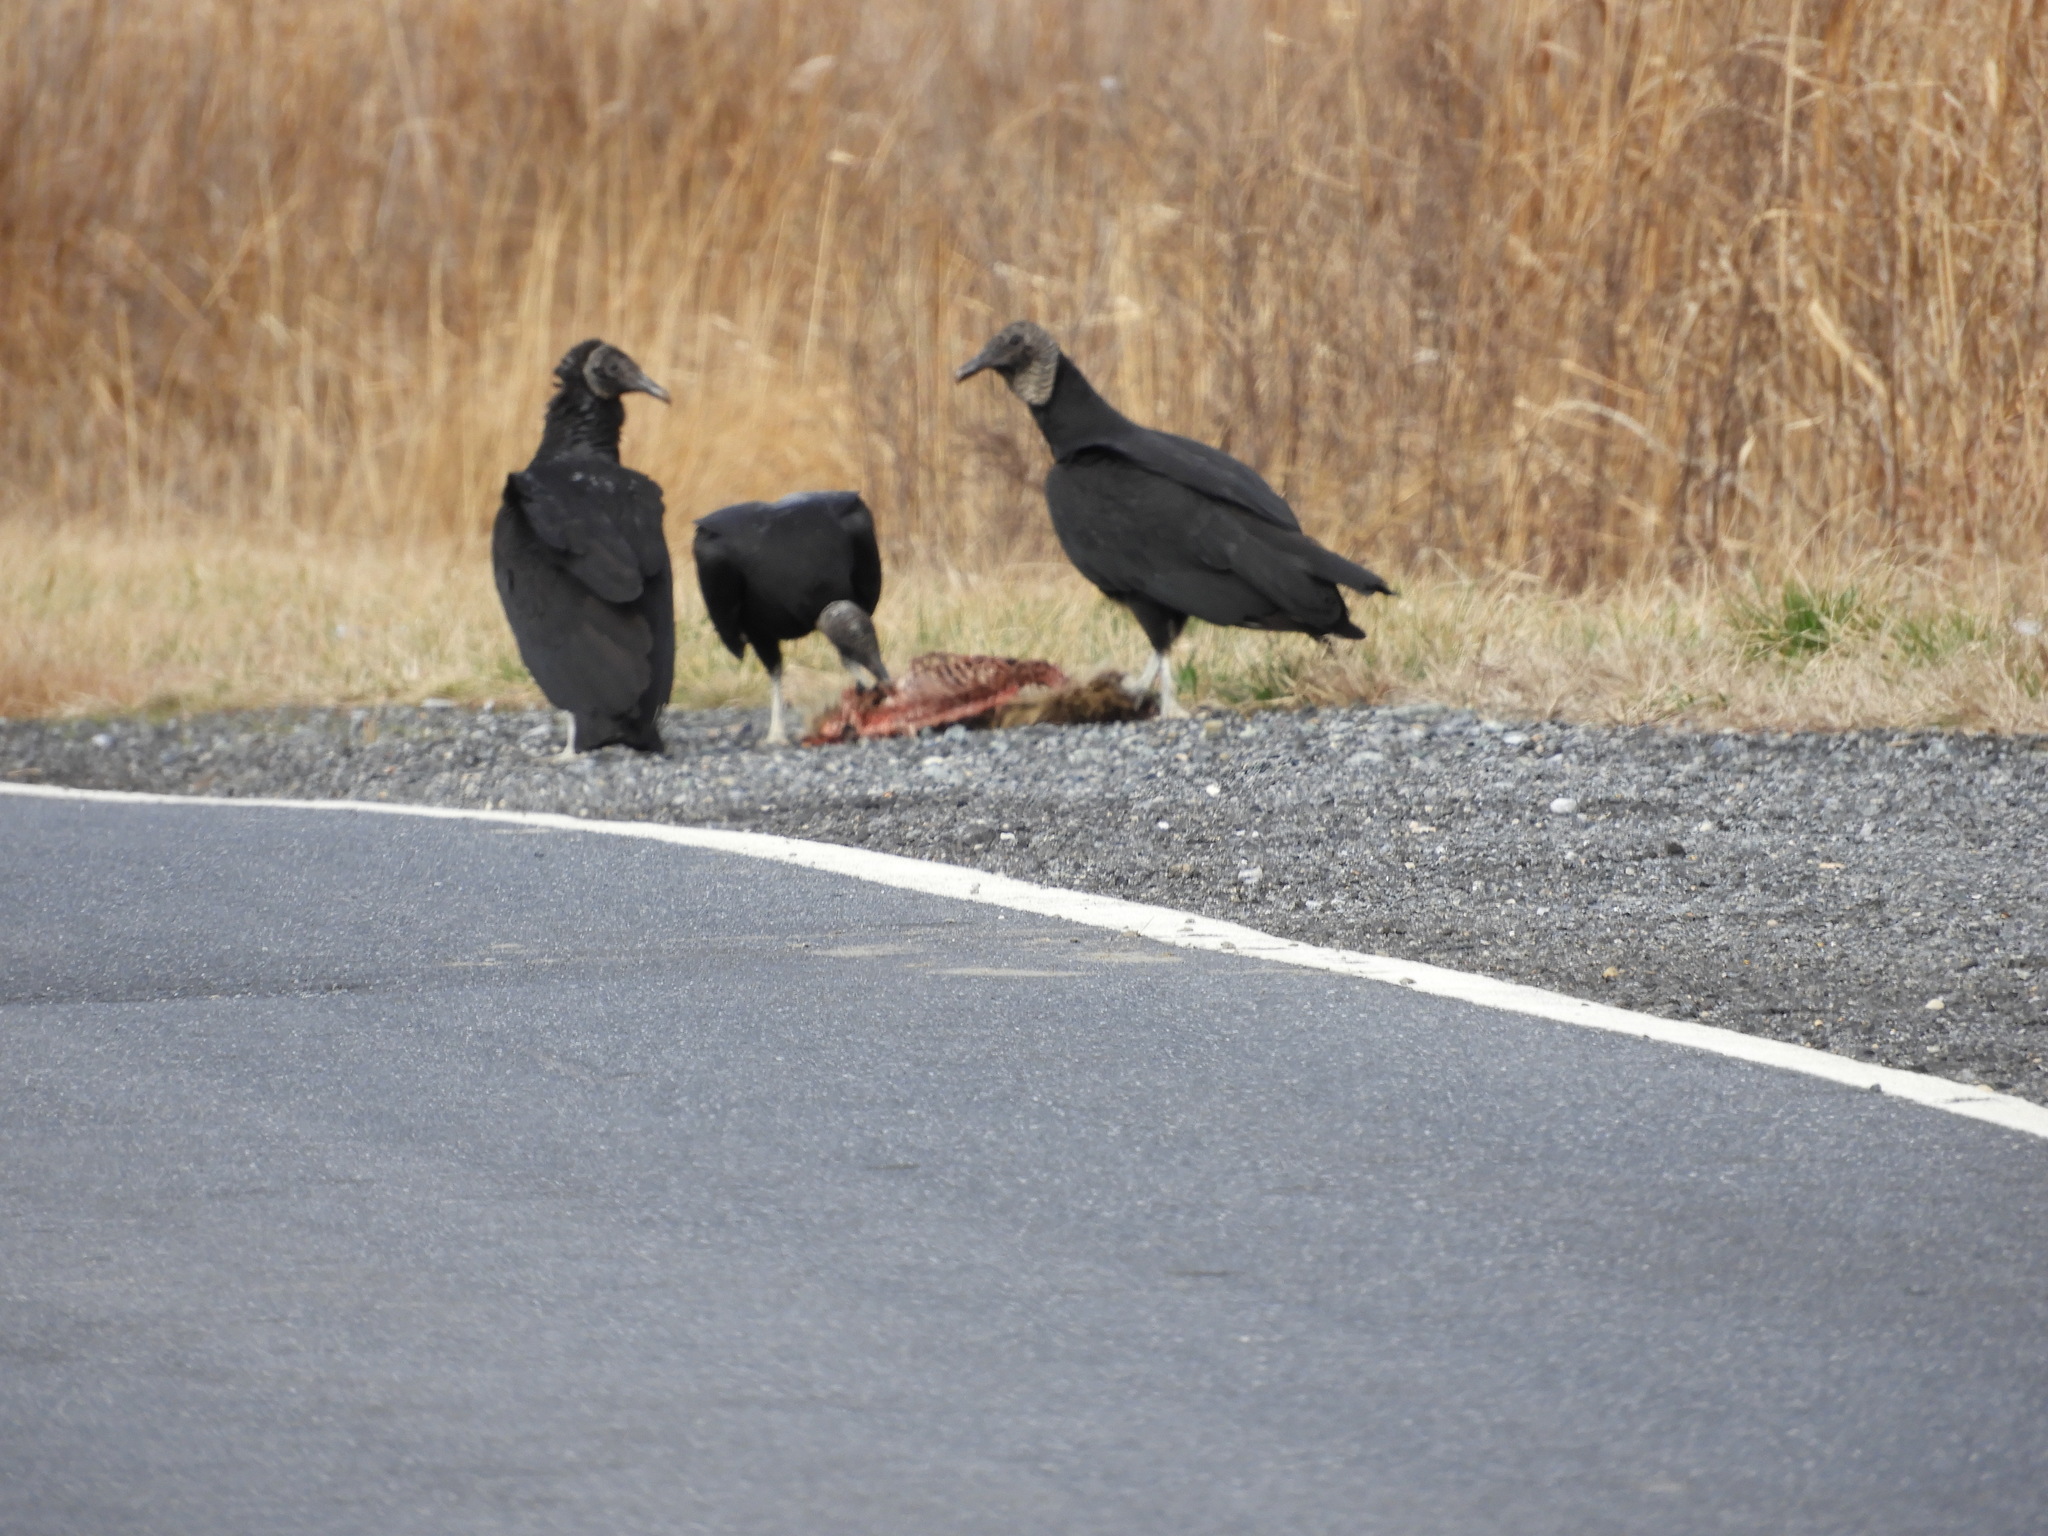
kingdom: Animalia
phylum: Chordata
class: Aves
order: Accipitriformes
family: Cathartidae
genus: Coragyps
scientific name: Coragyps atratus
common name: Black vulture
